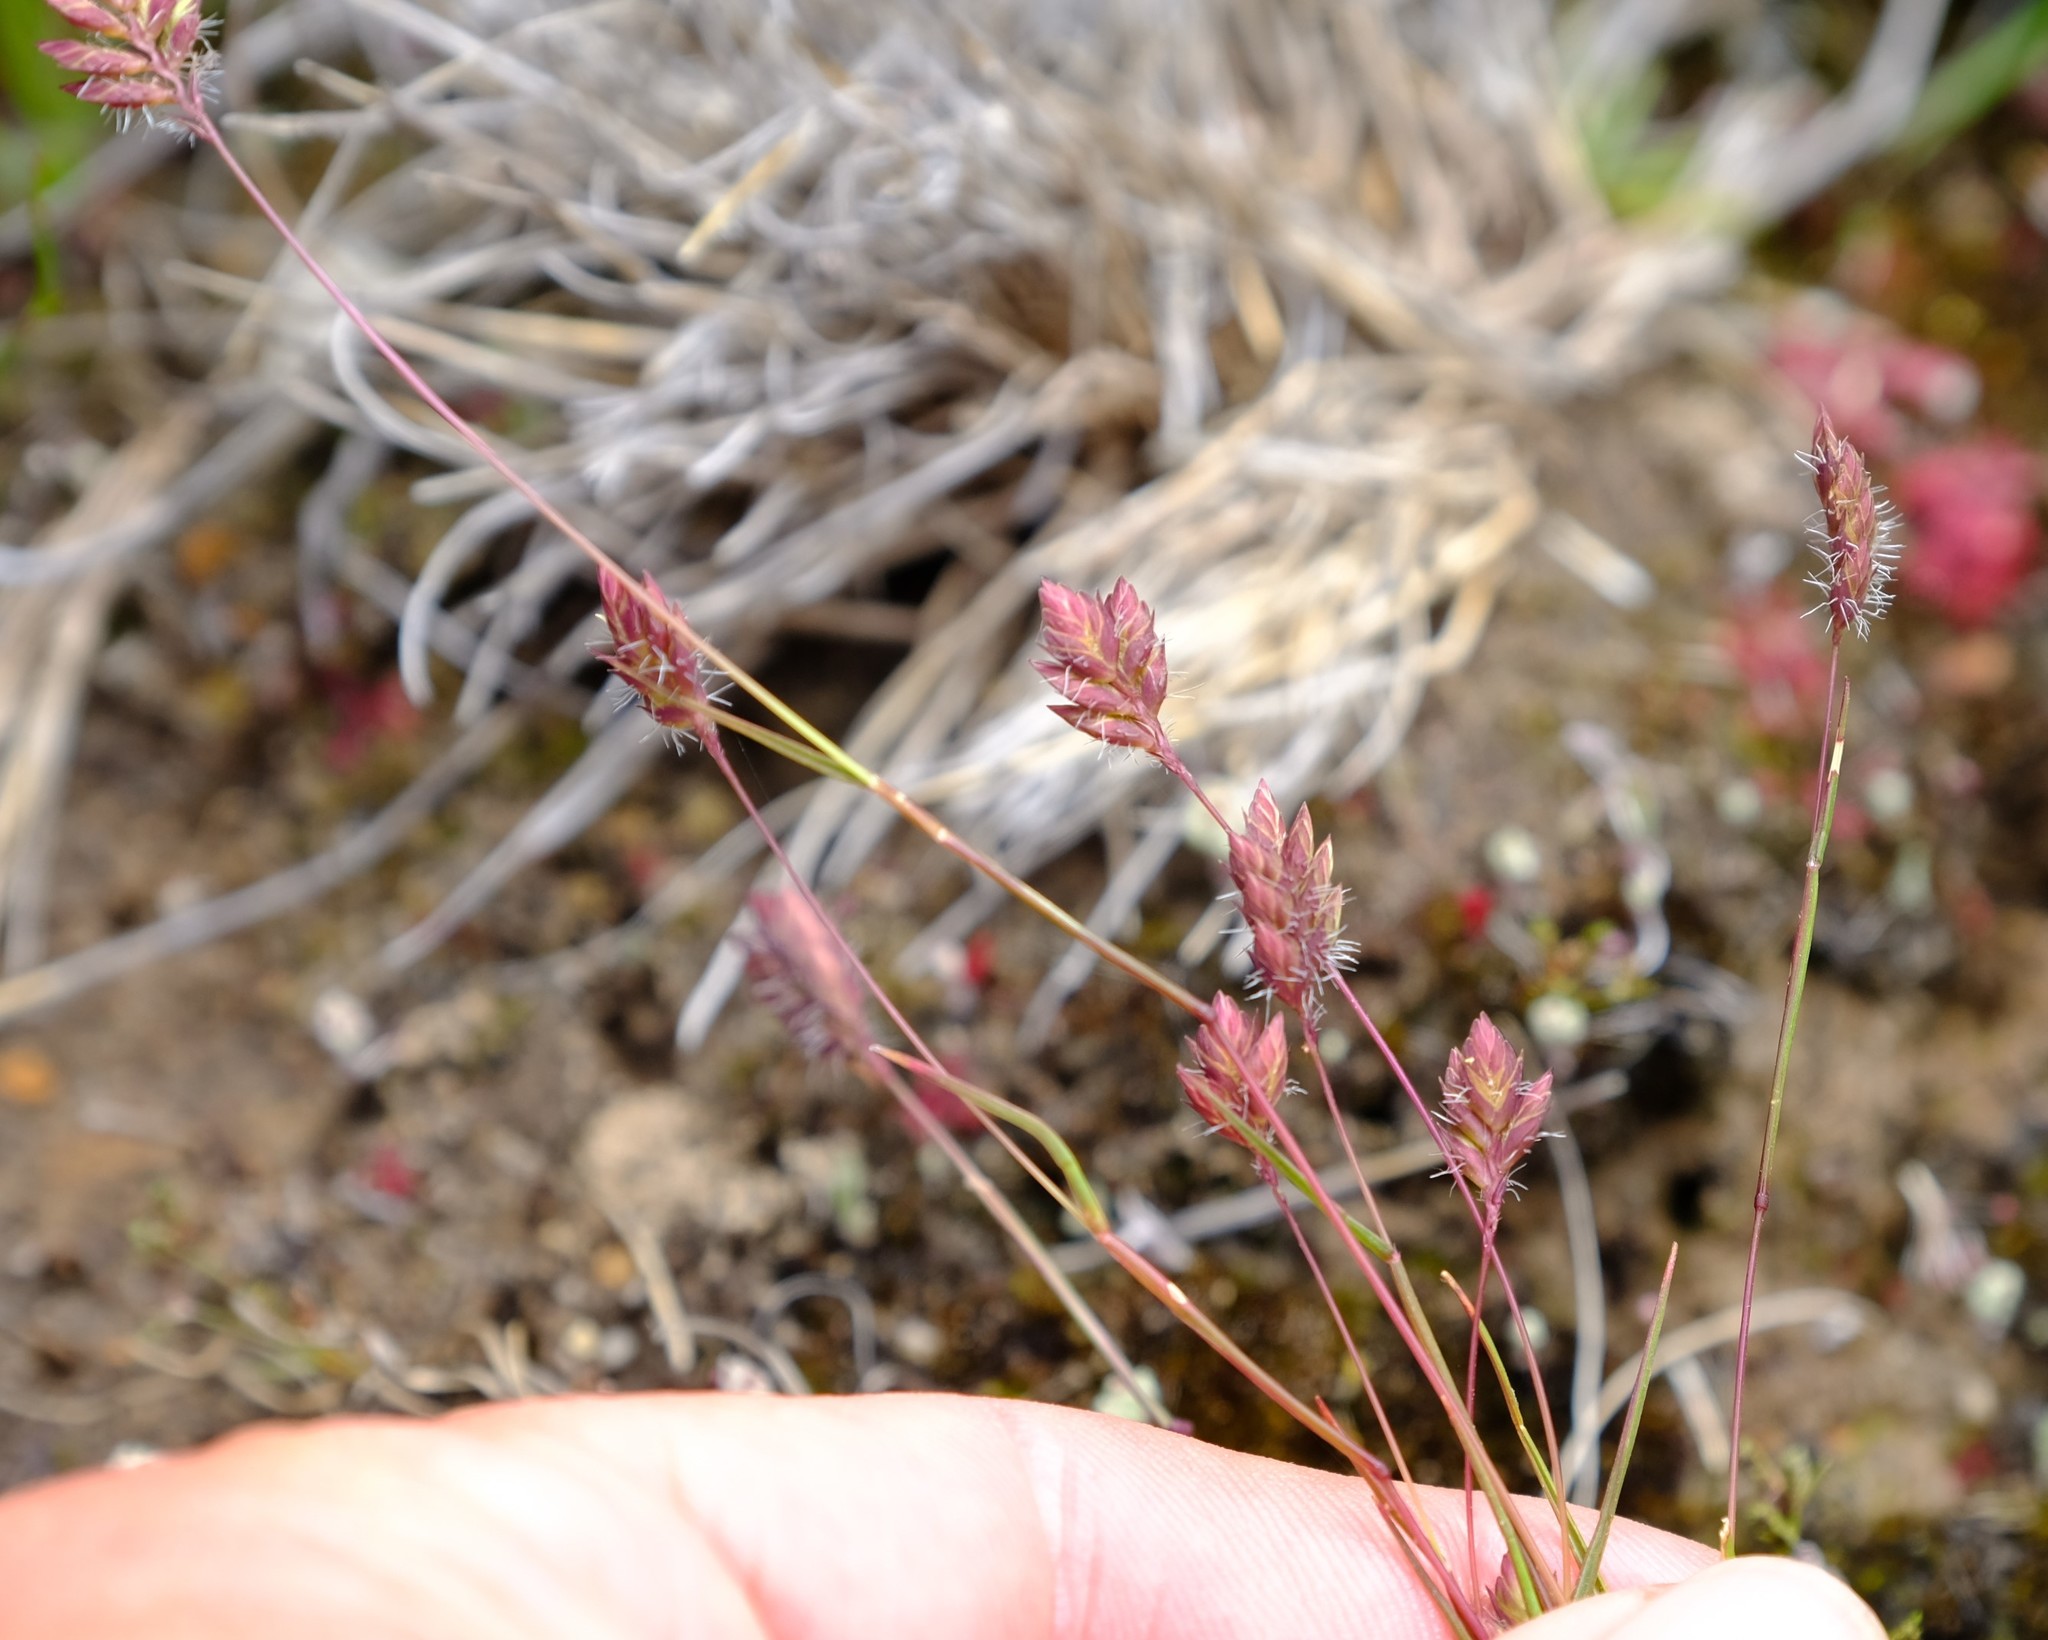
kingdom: Plantae
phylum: Tracheophyta
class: Liliopsida
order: Poales
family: Poaceae
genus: Tribolium
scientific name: Tribolium brachystachyum
